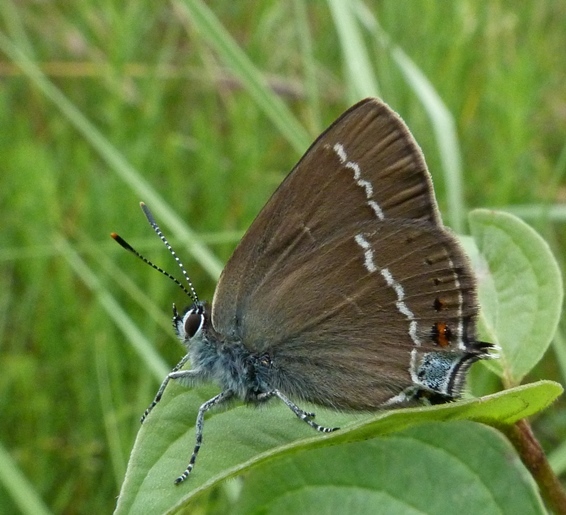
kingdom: Animalia
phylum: Arthropoda
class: Insecta
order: Lepidoptera
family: Lycaenidae
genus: Tuttiola
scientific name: Tuttiola spini
